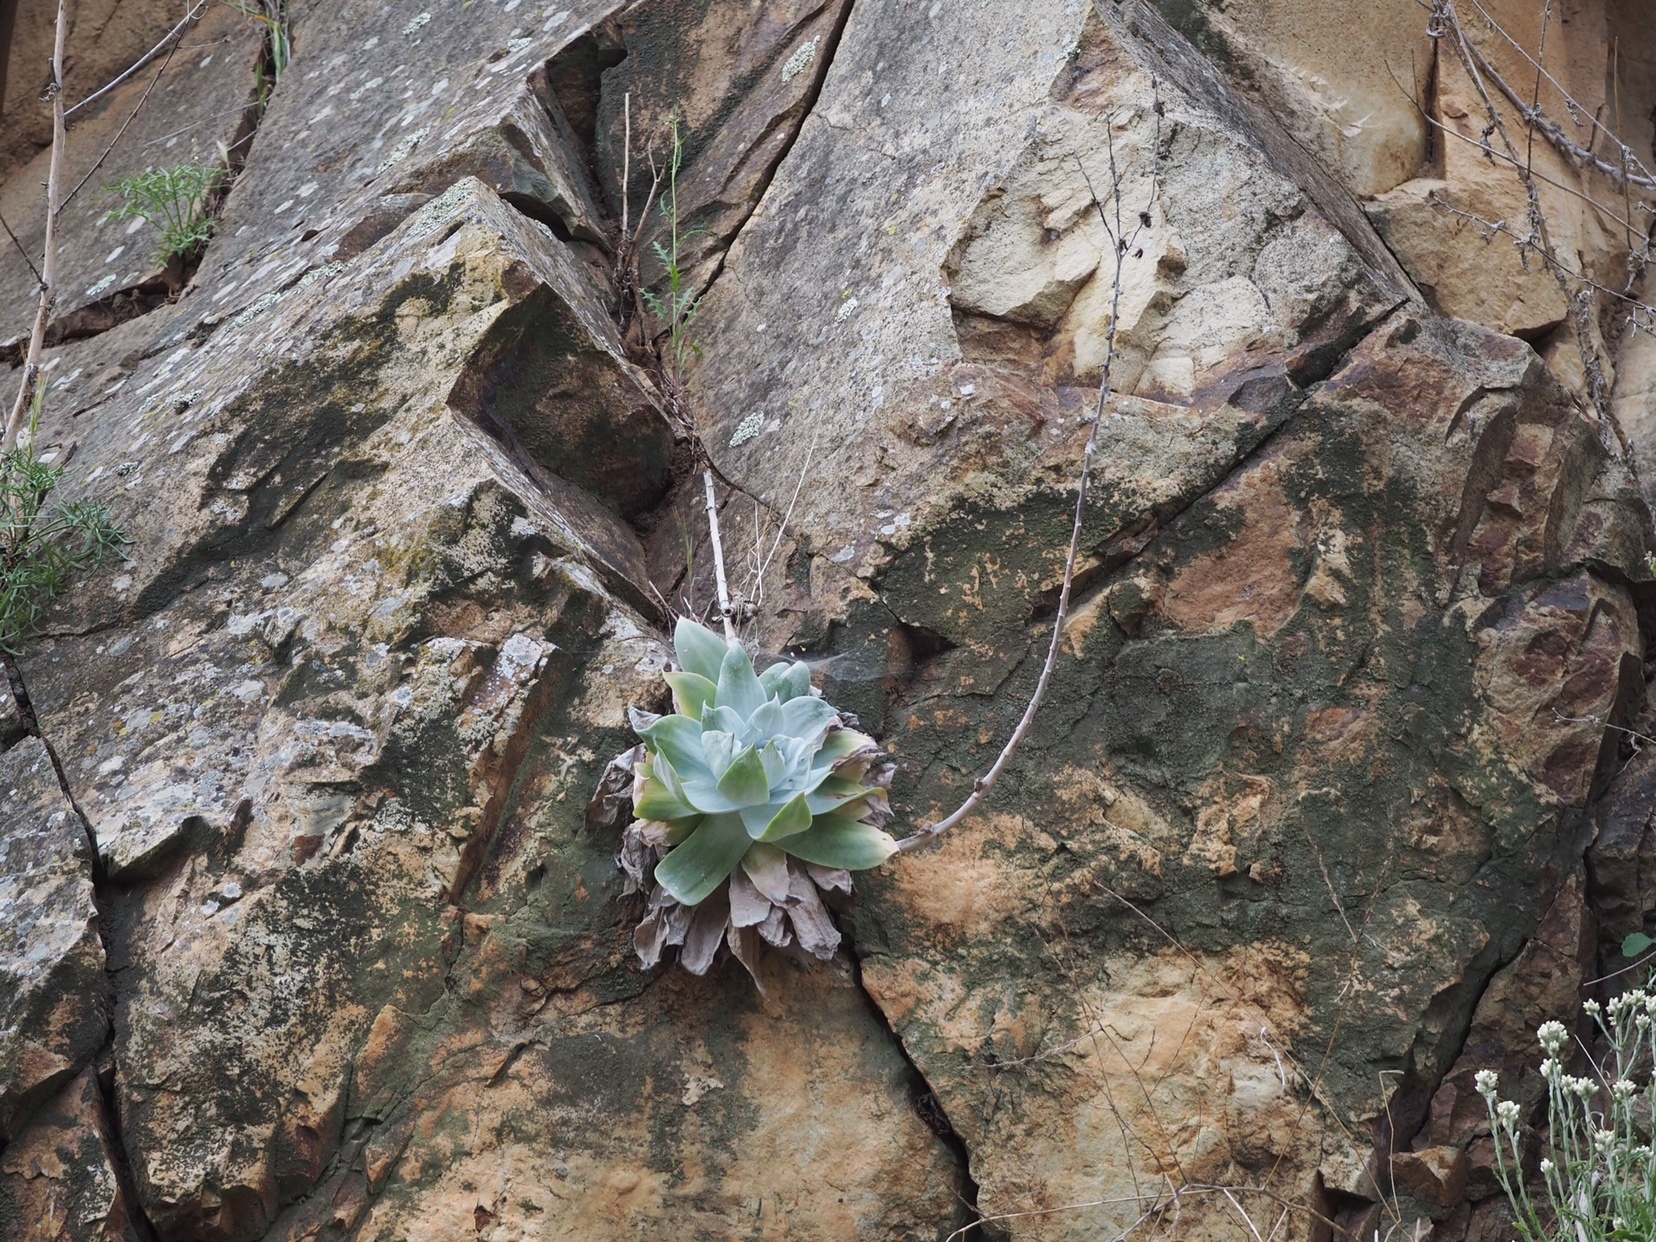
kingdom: Plantae
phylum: Tracheophyta
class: Magnoliopsida
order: Saxifragales
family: Crassulaceae
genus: Dudleya
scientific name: Dudleya pulverulenta
